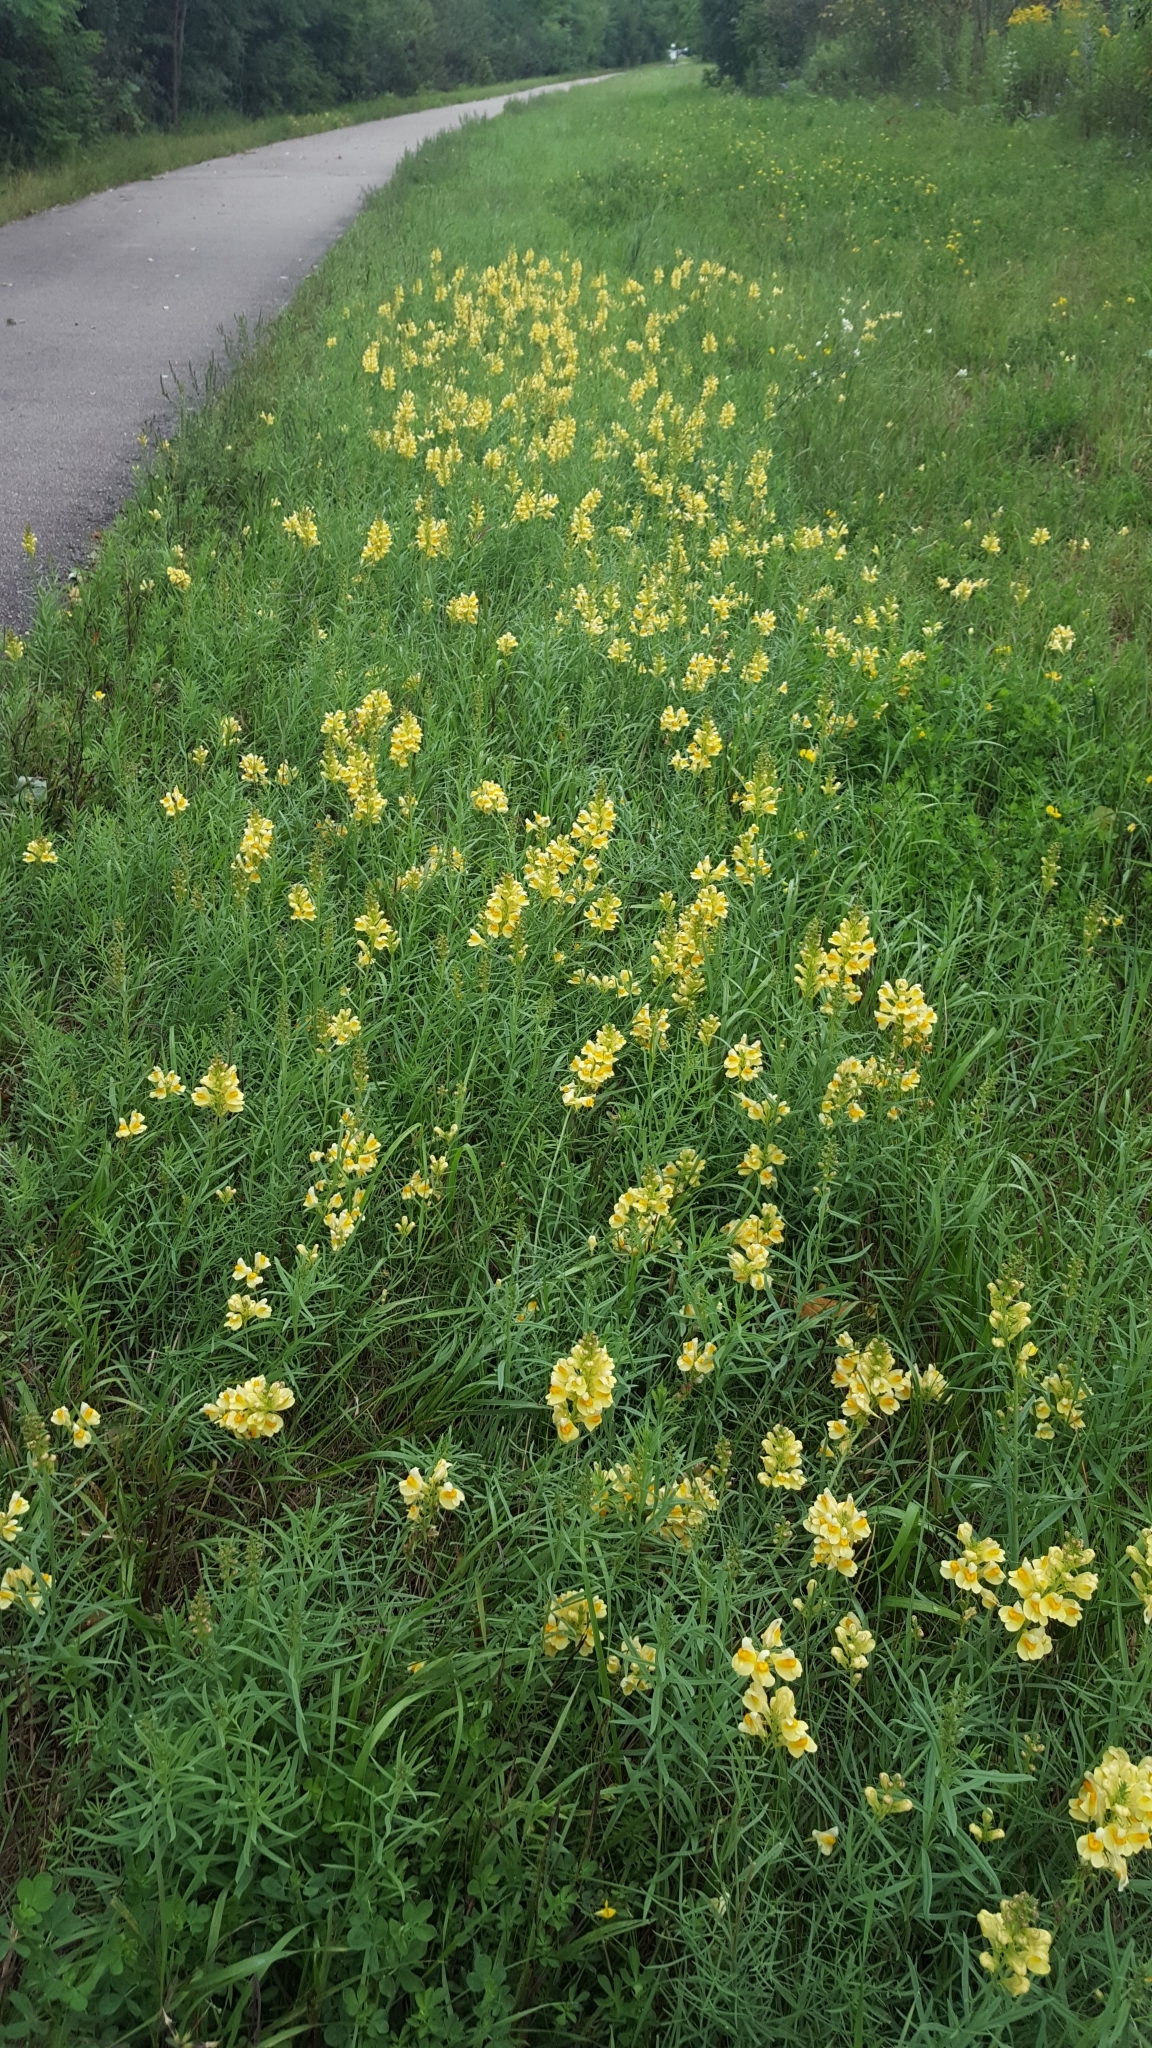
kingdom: Plantae
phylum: Tracheophyta
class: Magnoliopsida
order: Lamiales
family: Plantaginaceae
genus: Linaria
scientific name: Linaria vulgaris
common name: Butter and eggs
